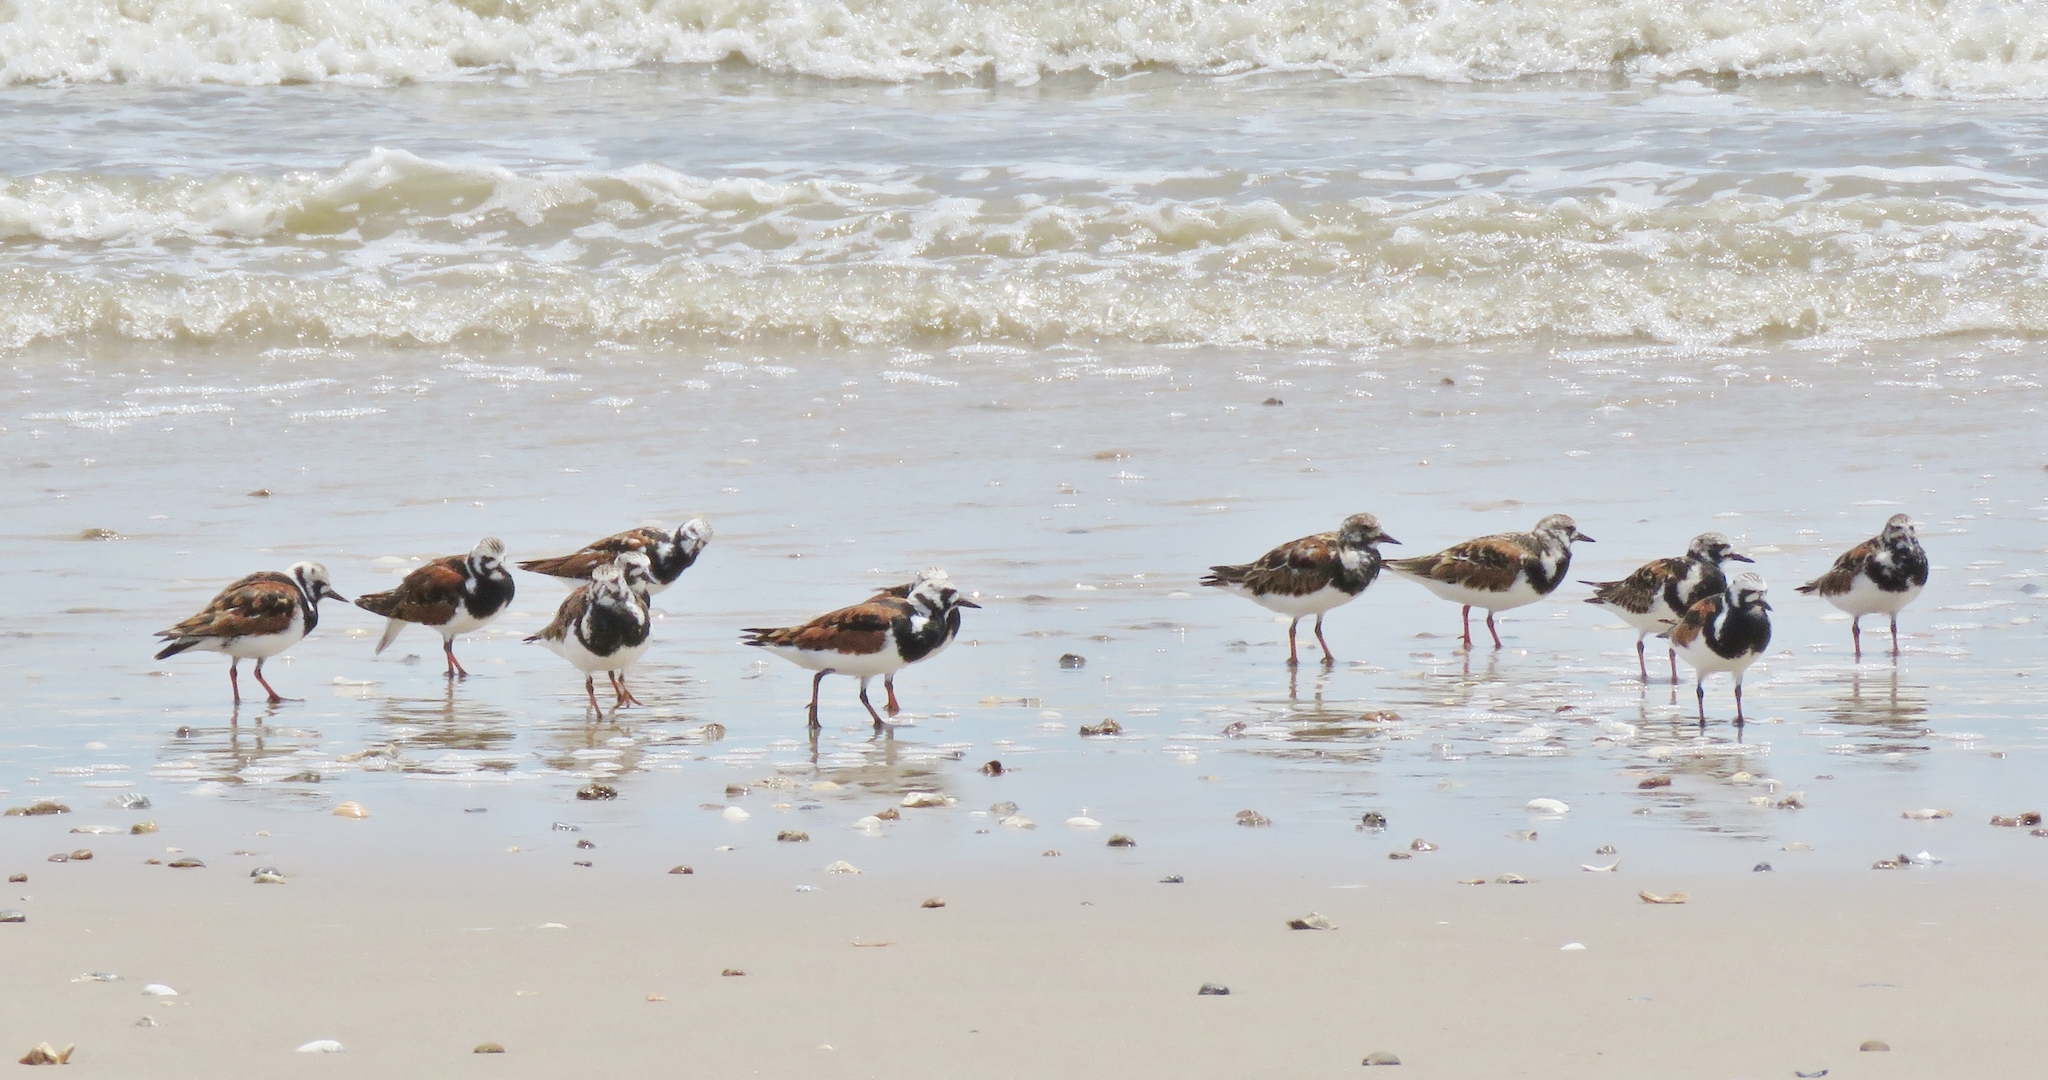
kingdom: Animalia
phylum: Chordata
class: Aves
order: Charadriiformes
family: Scolopacidae
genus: Arenaria
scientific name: Arenaria interpres
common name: Ruddy turnstone
